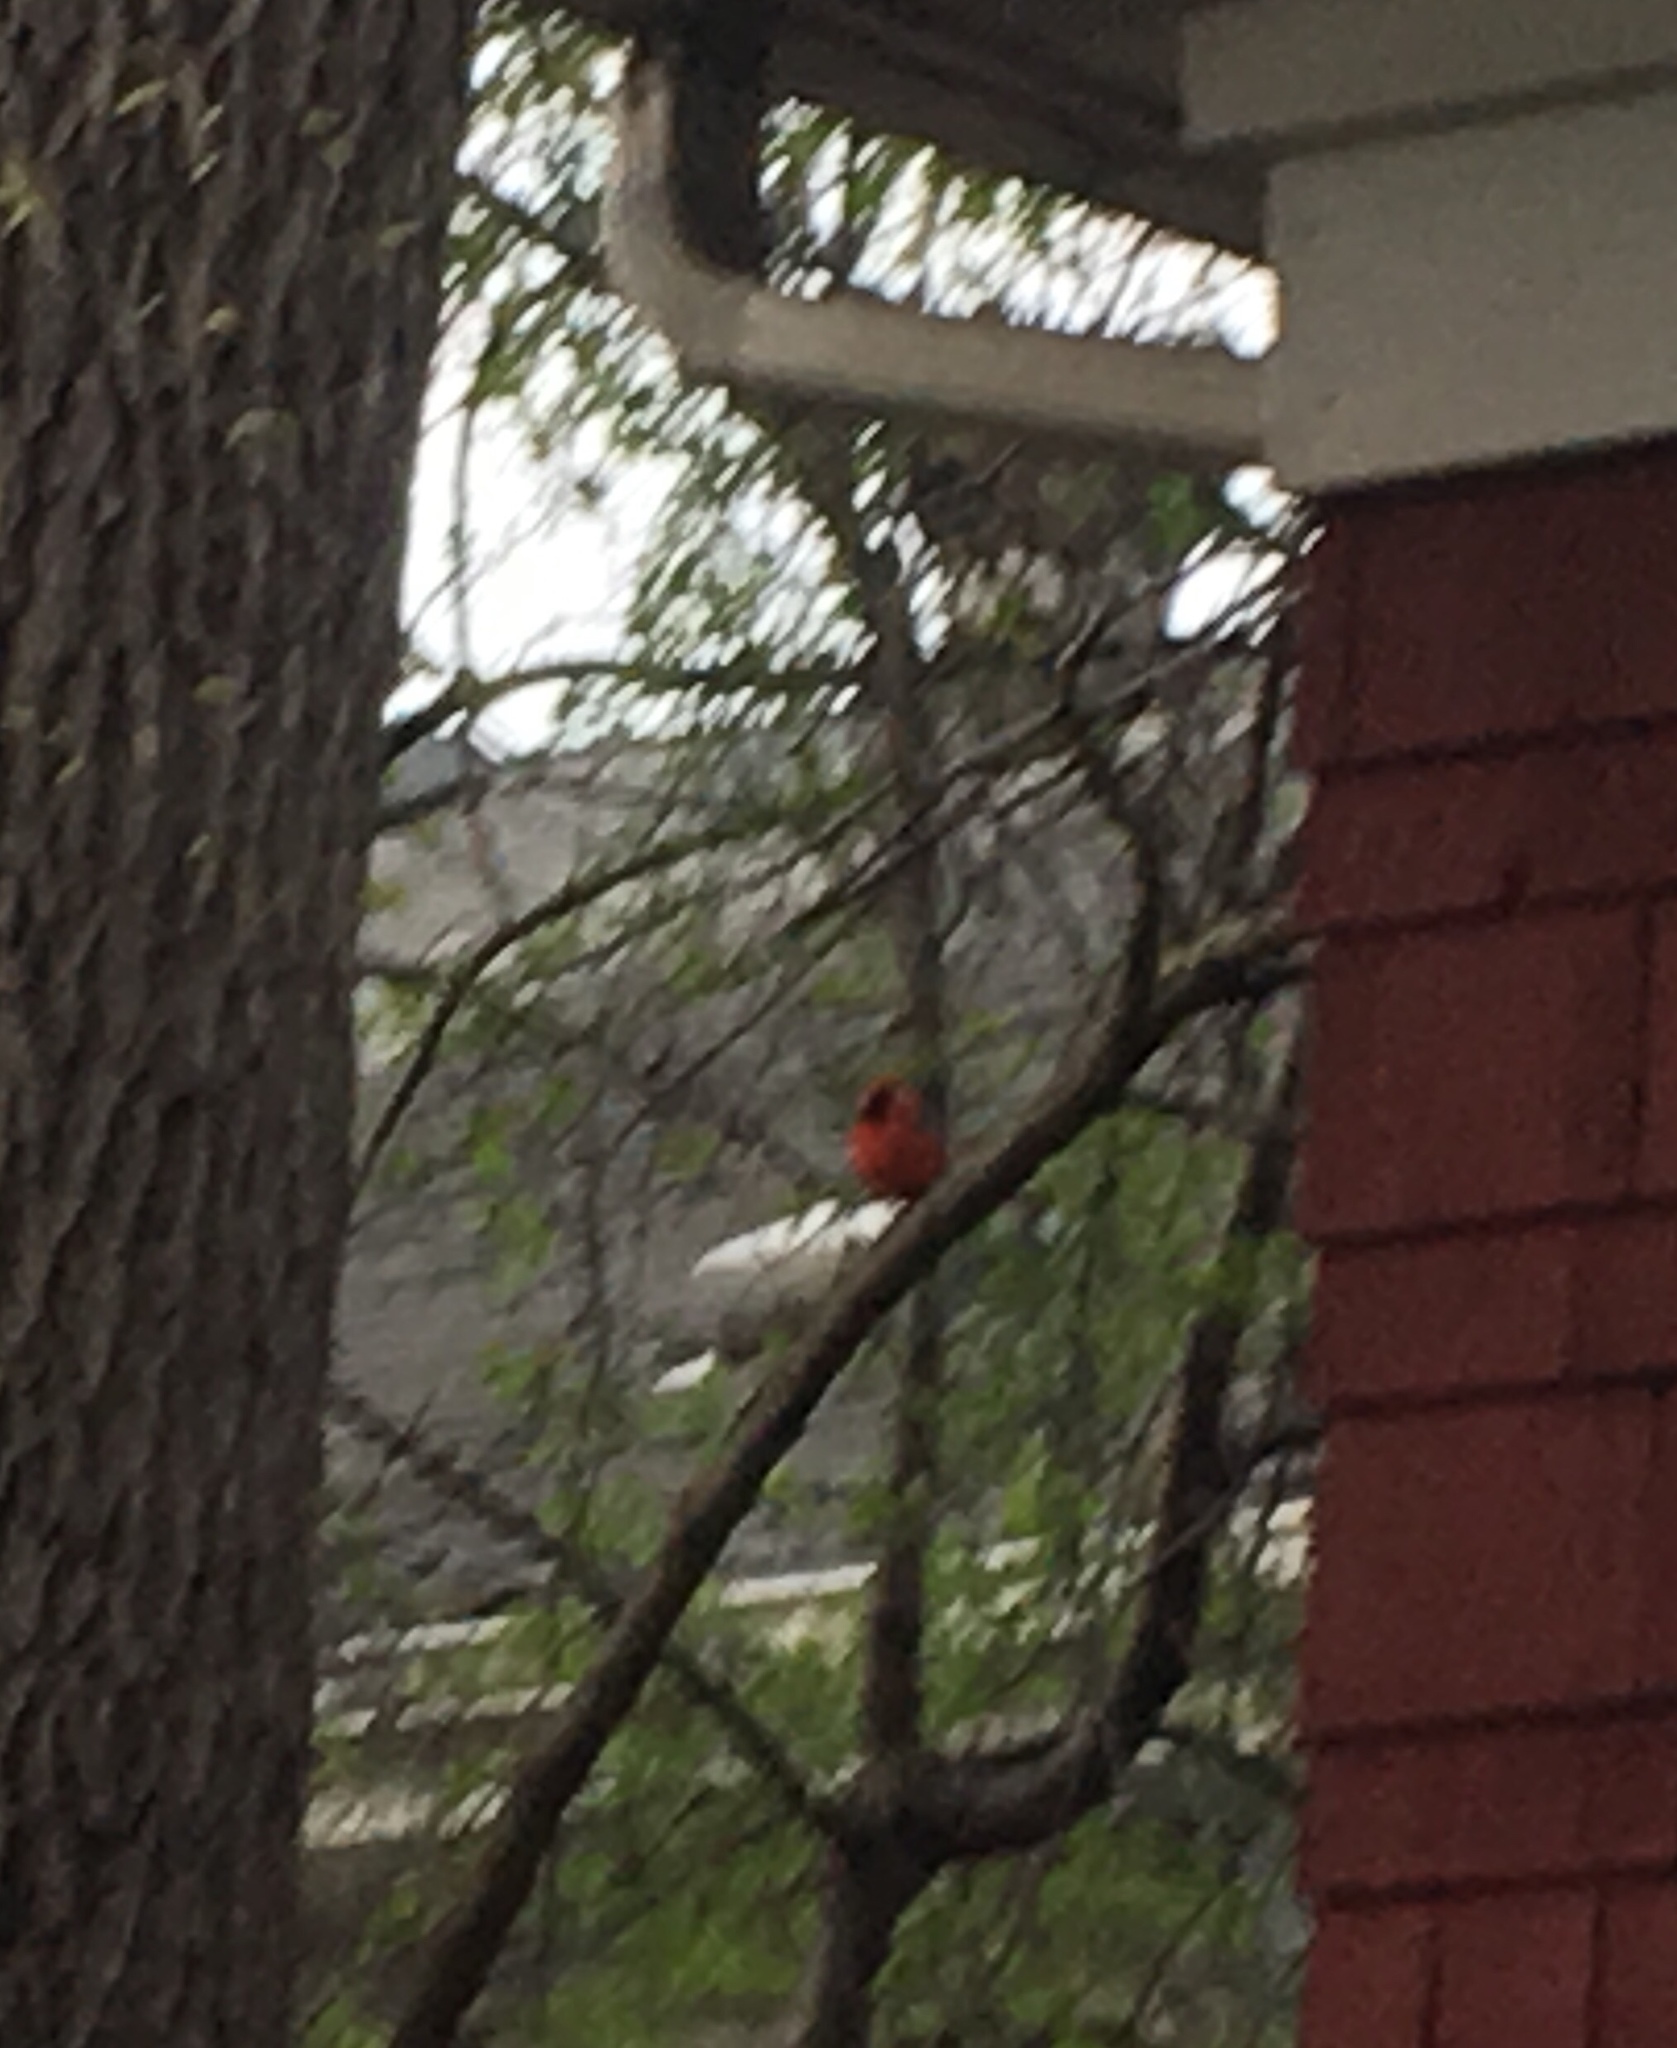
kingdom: Animalia
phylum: Chordata
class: Aves
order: Passeriformes
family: Cardinalidae
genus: Cardinalis
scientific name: Cardinalis cardinalis
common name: Northern cardinal
